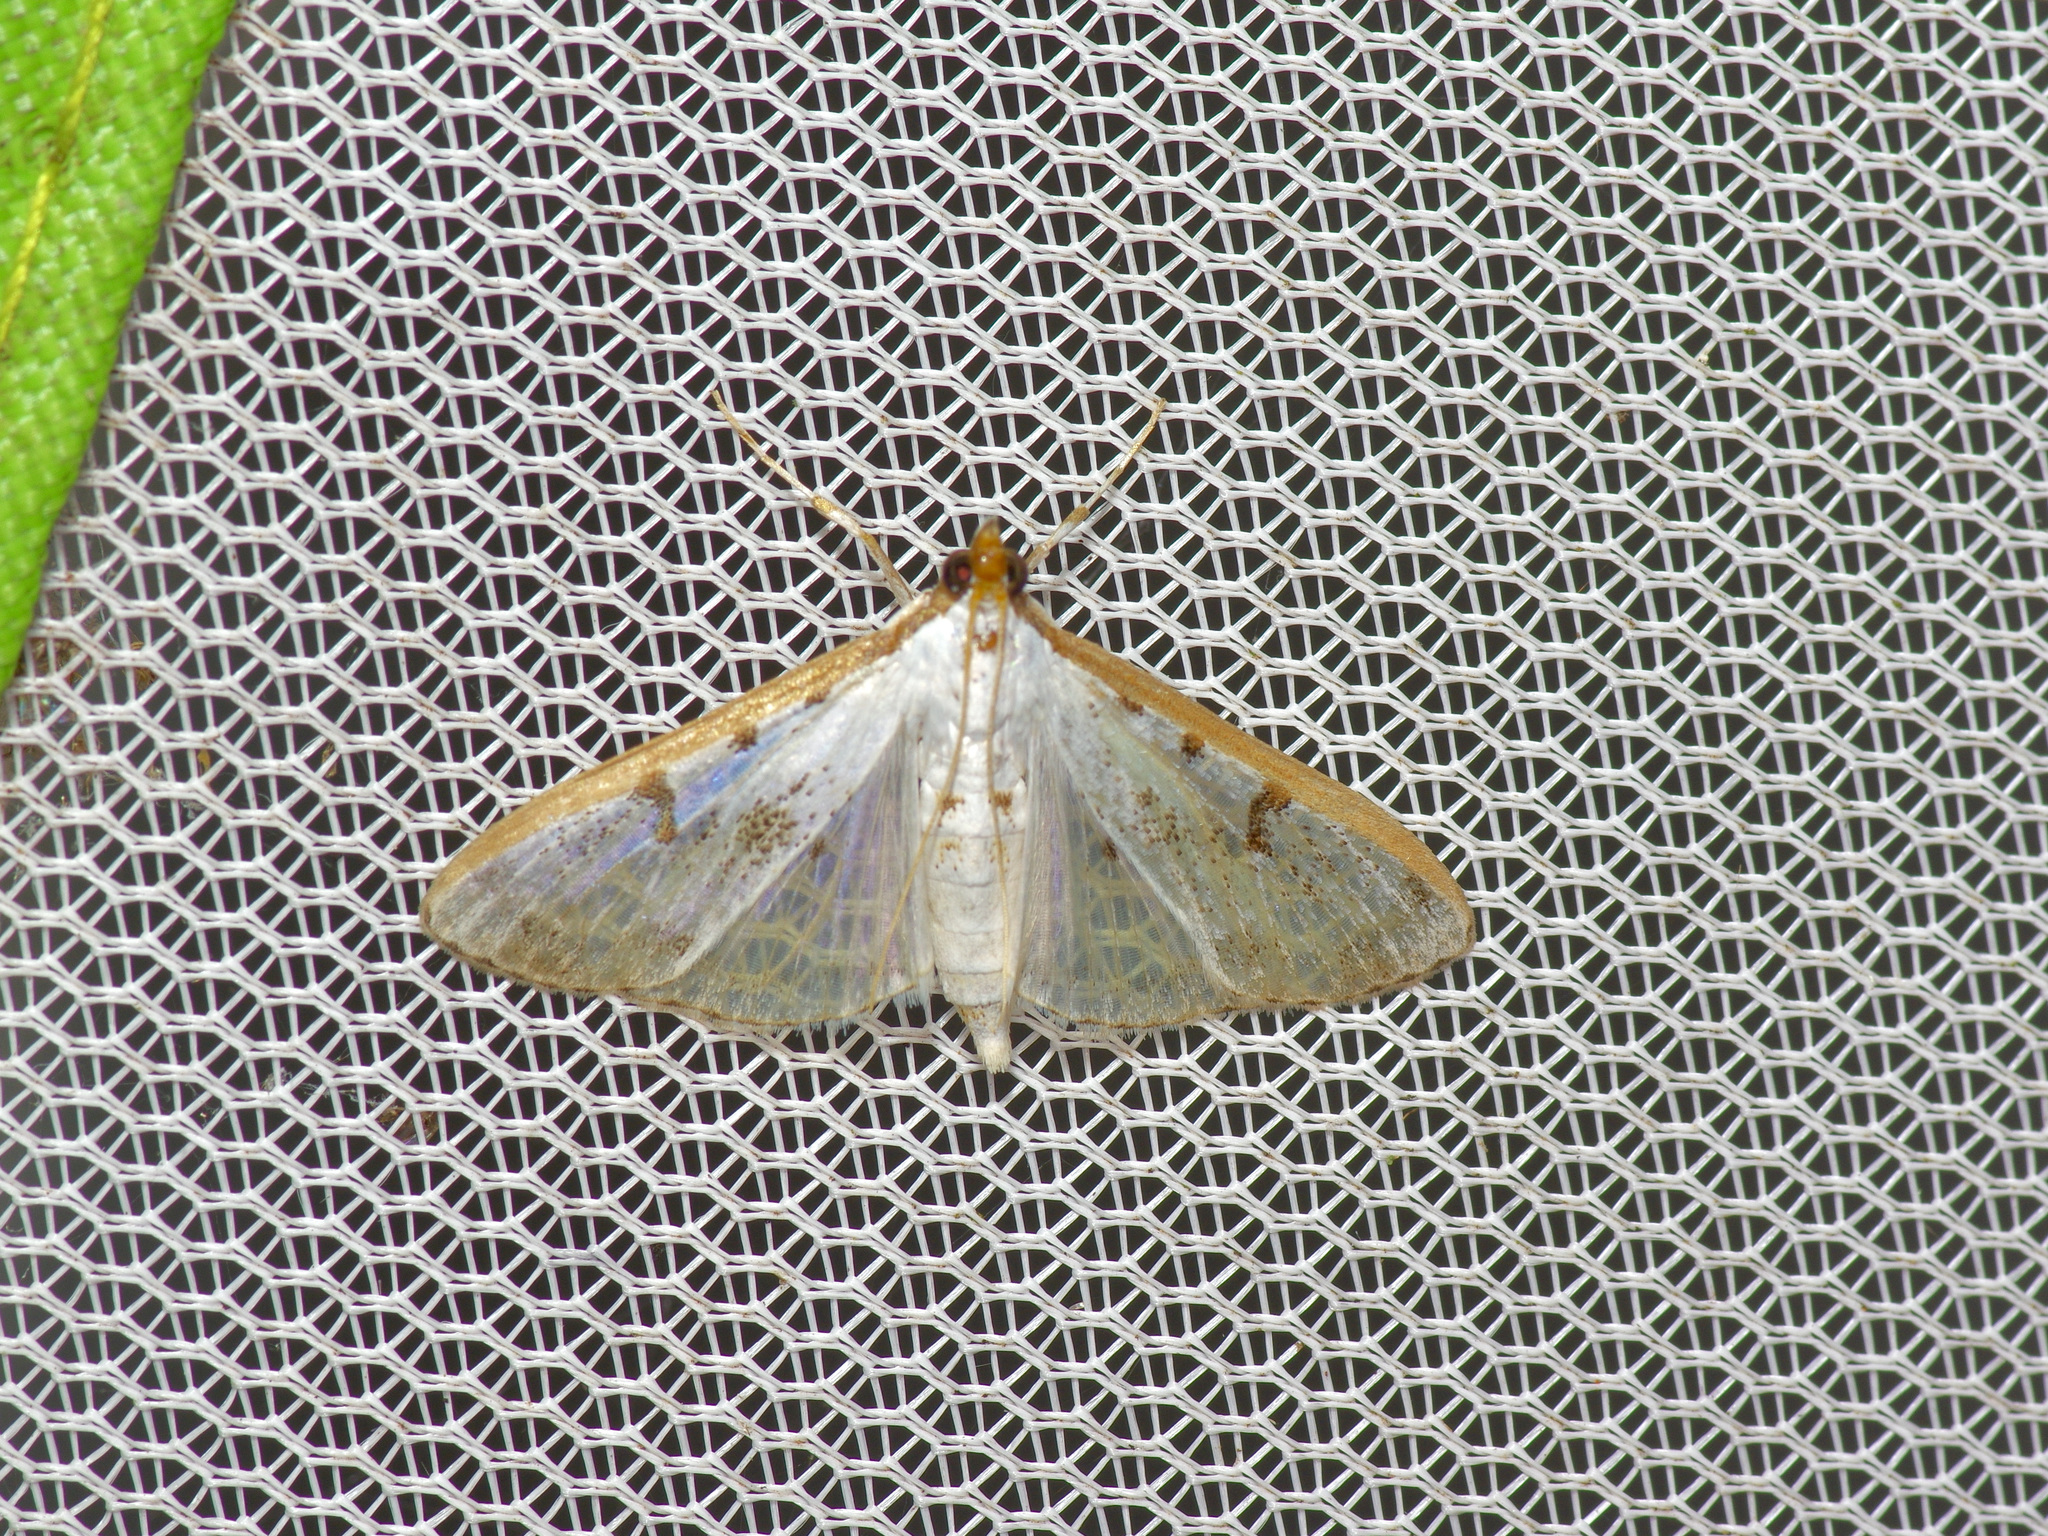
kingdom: Animalia
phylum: Arthropoda
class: Insecta
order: Lepidoptera
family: Crambidae
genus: Palpita
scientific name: Palpita gracilalis
